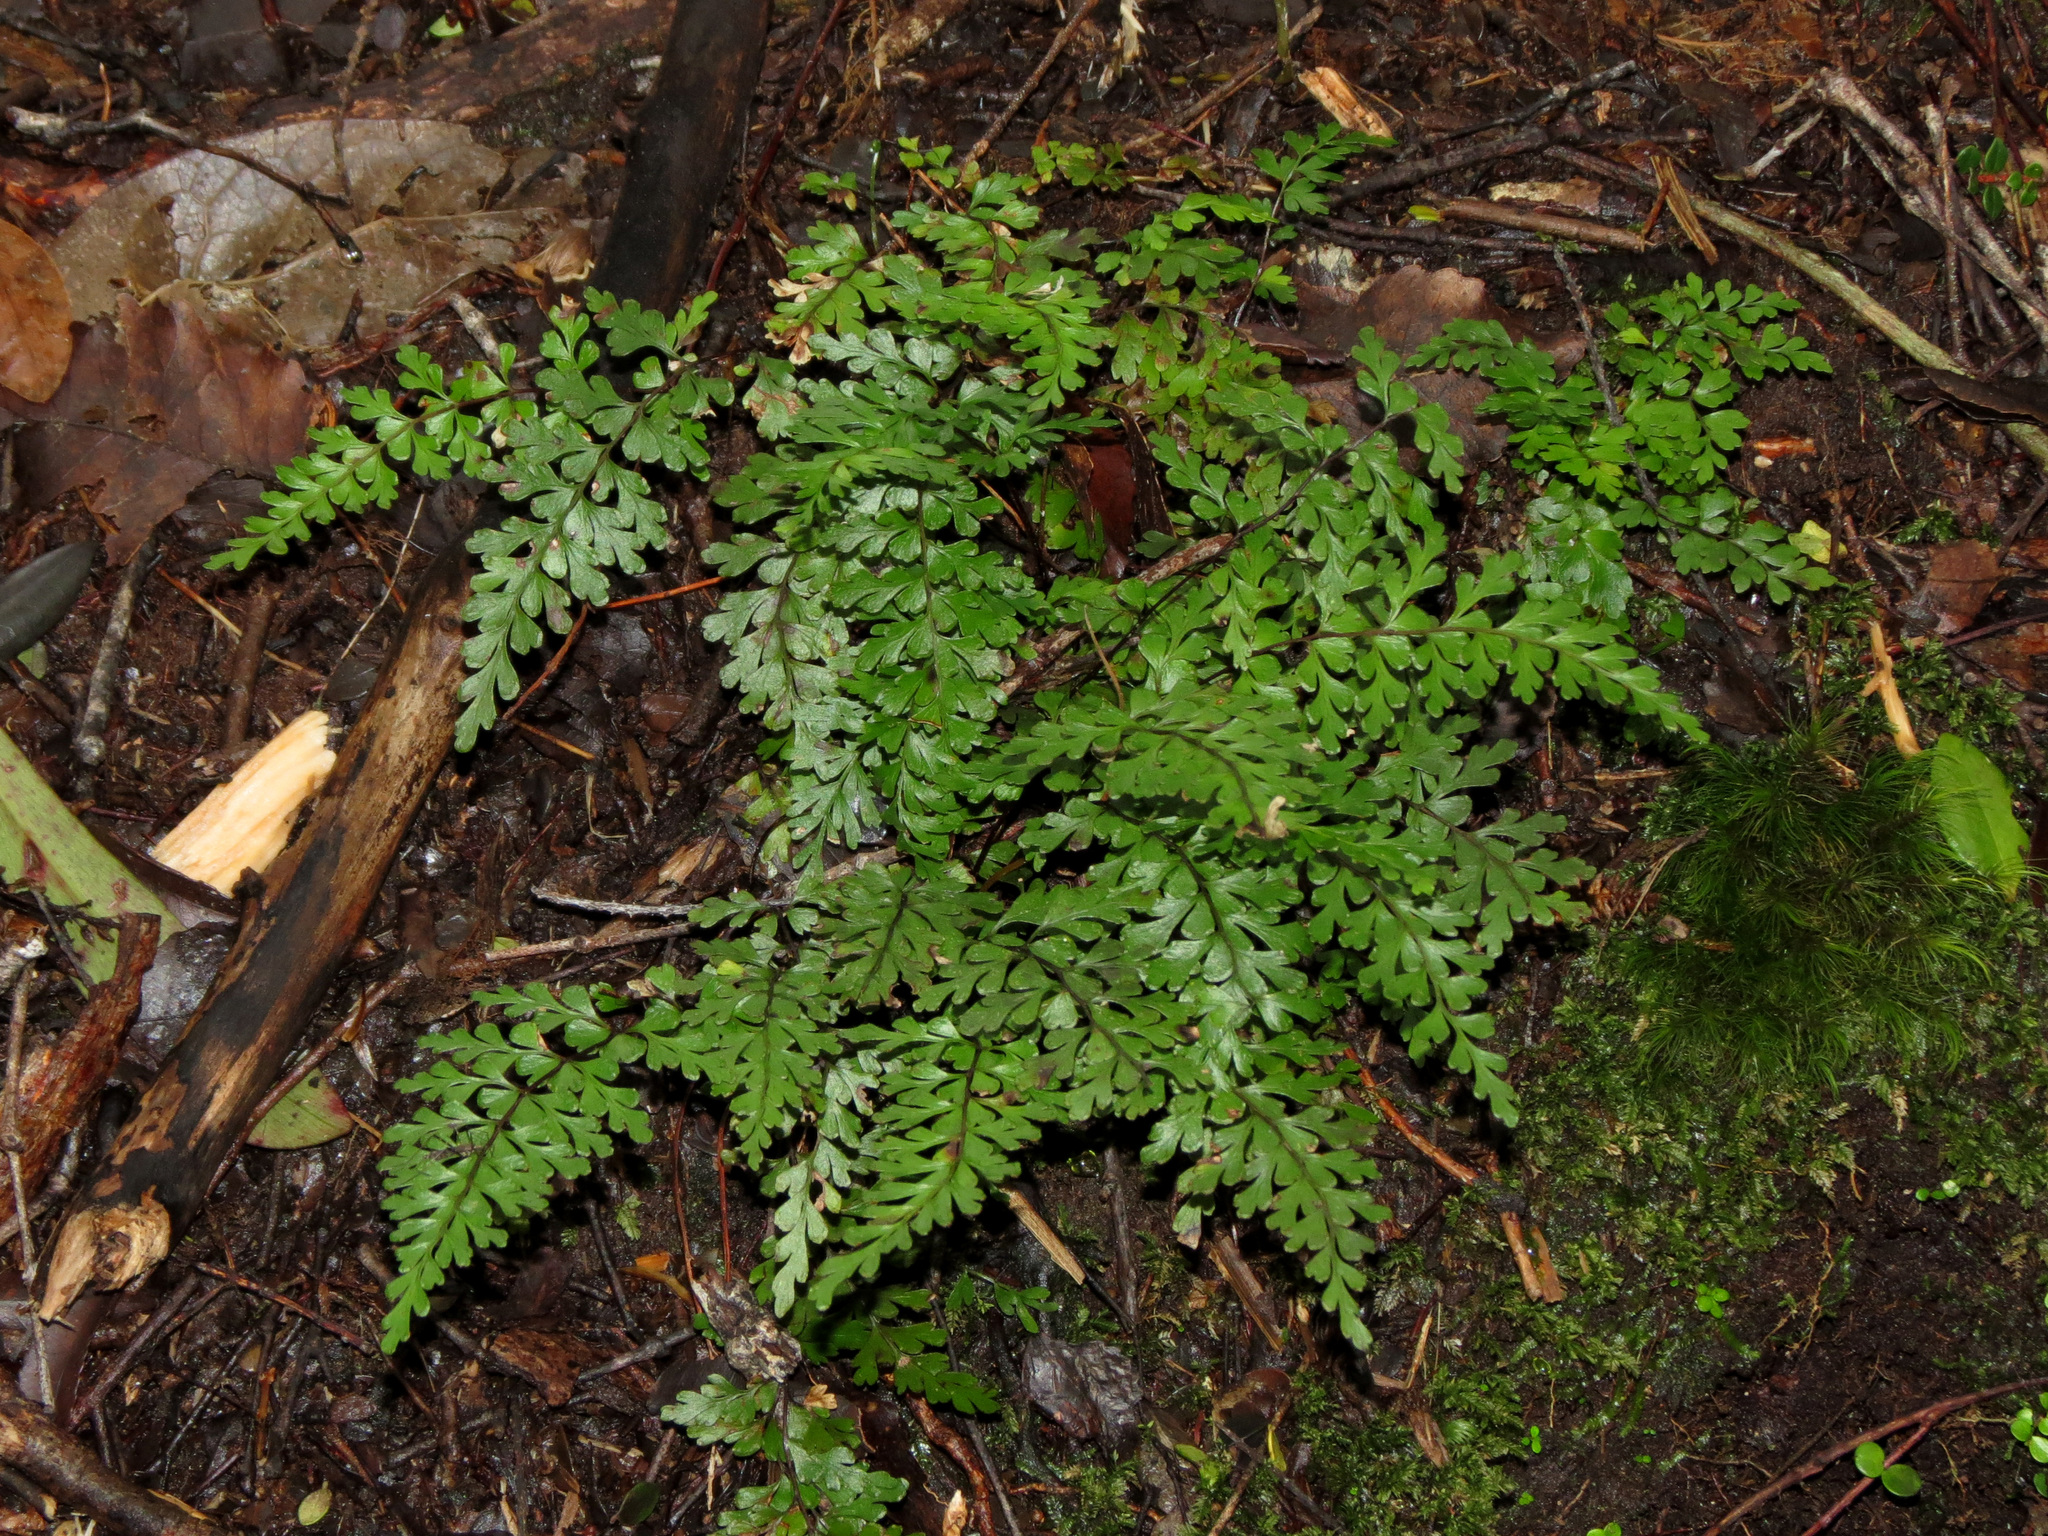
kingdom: Plantae
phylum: Tracheophyta
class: Polypodiopsida
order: Polypodiales
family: Lindsaeaceae
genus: Lindsaea
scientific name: Lindsaea trichomanoides
